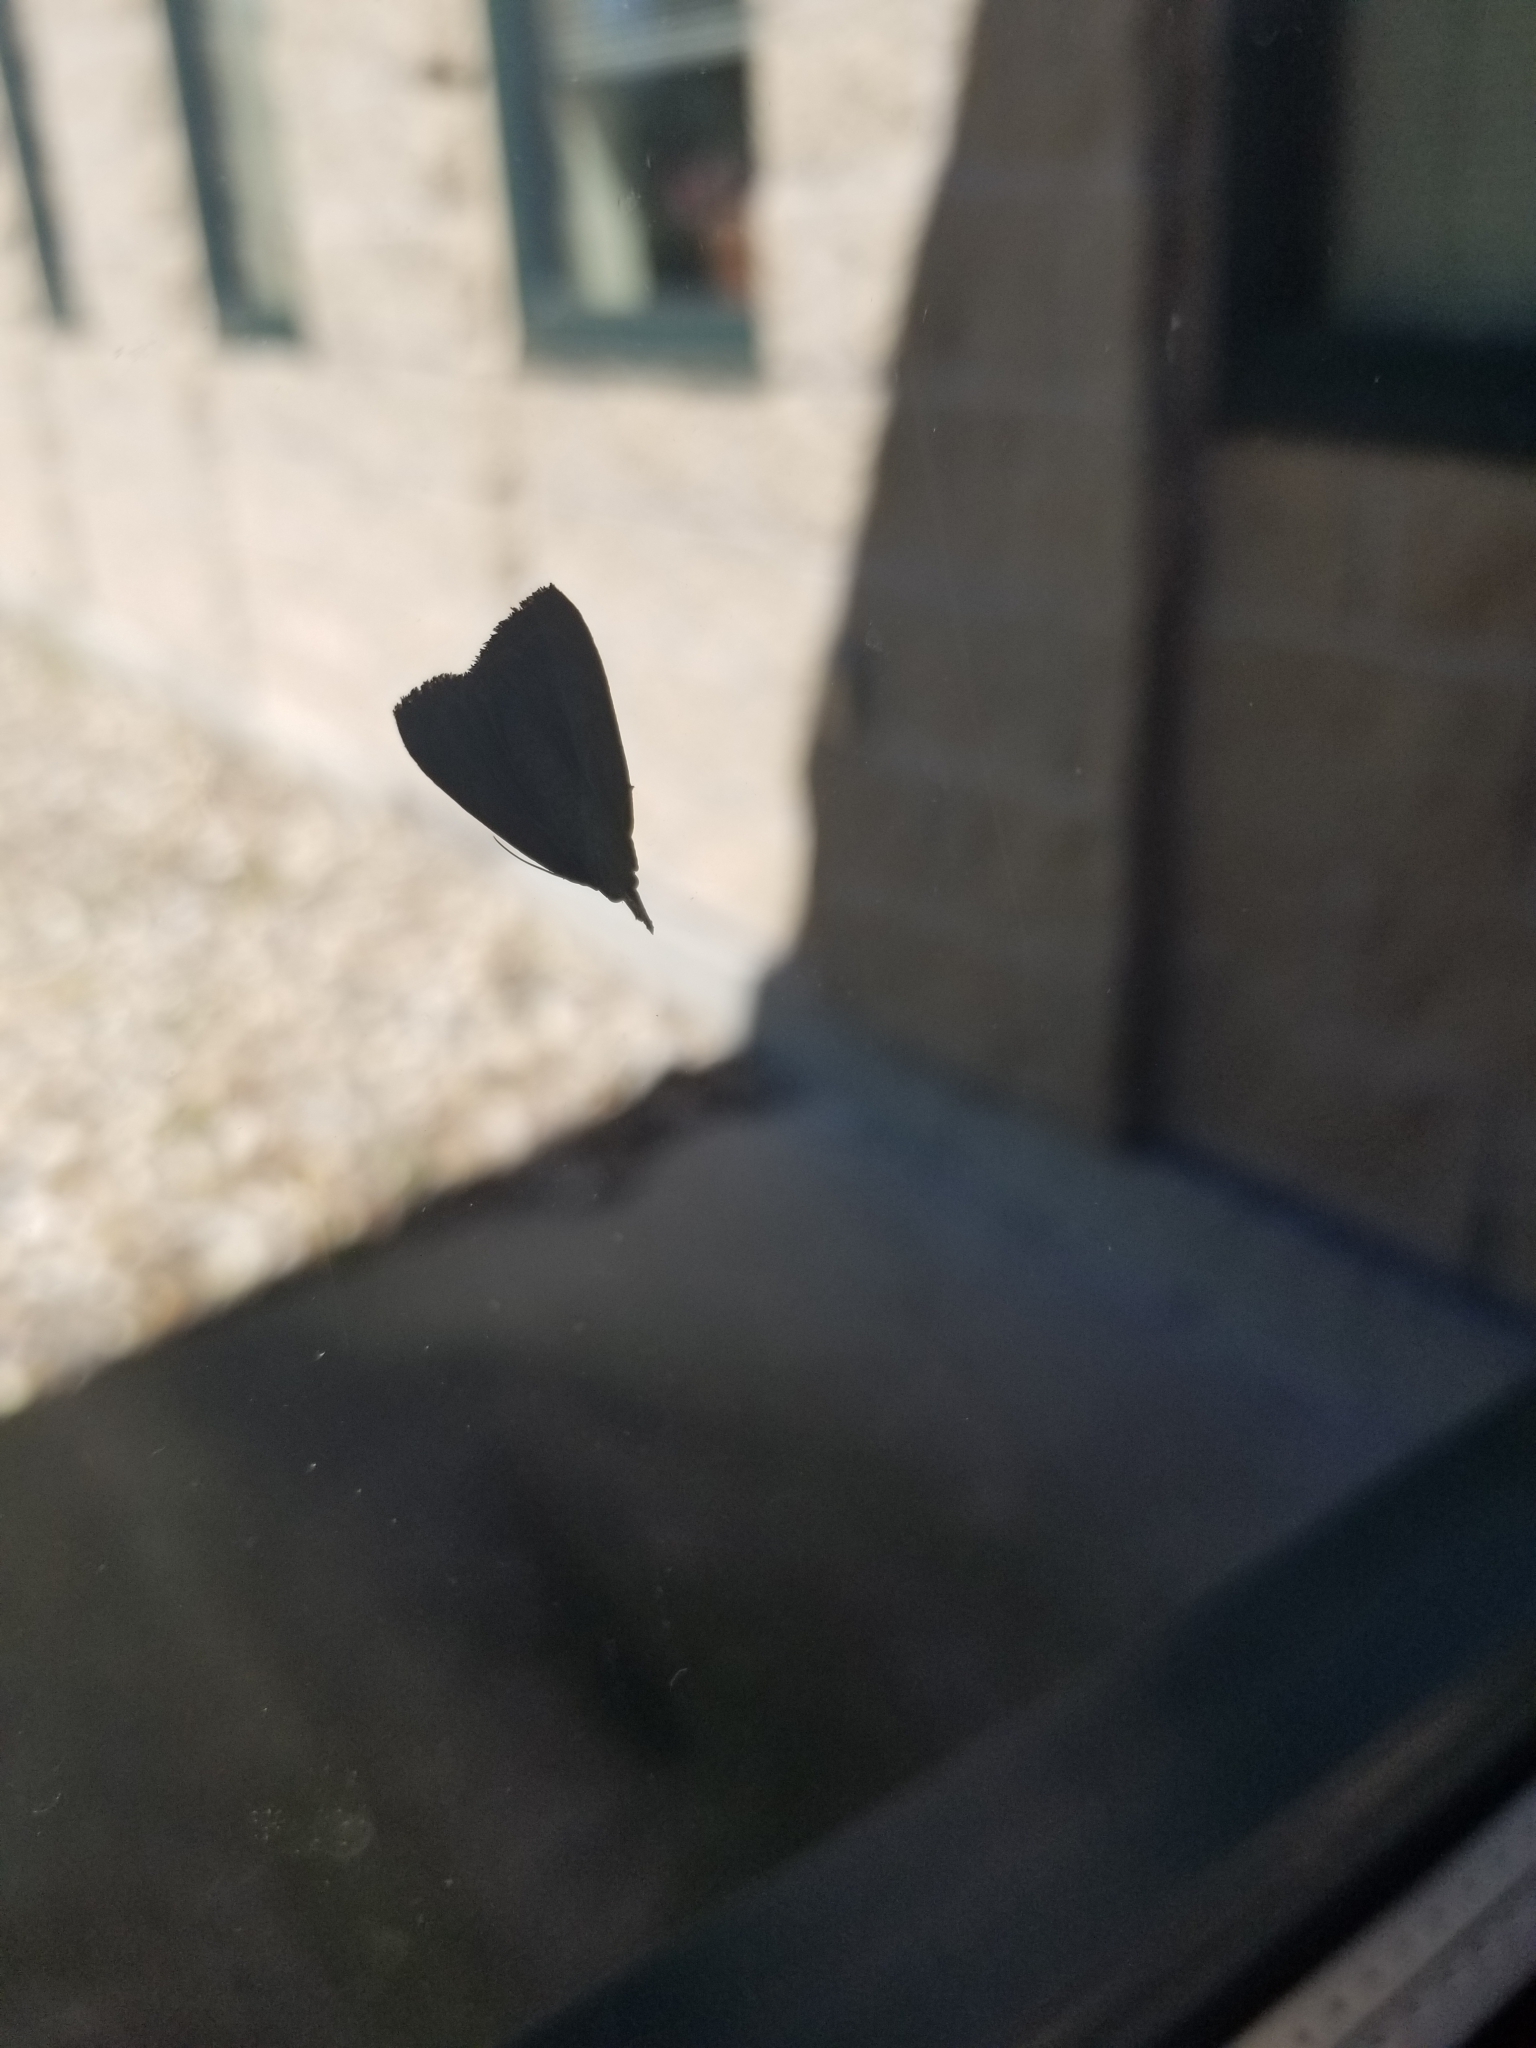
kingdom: Animalia
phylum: Arthropoda
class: Insecta
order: Lepidoptera
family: Erebidae
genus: Hypena
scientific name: Hypena scabra
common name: Green cloverworm
